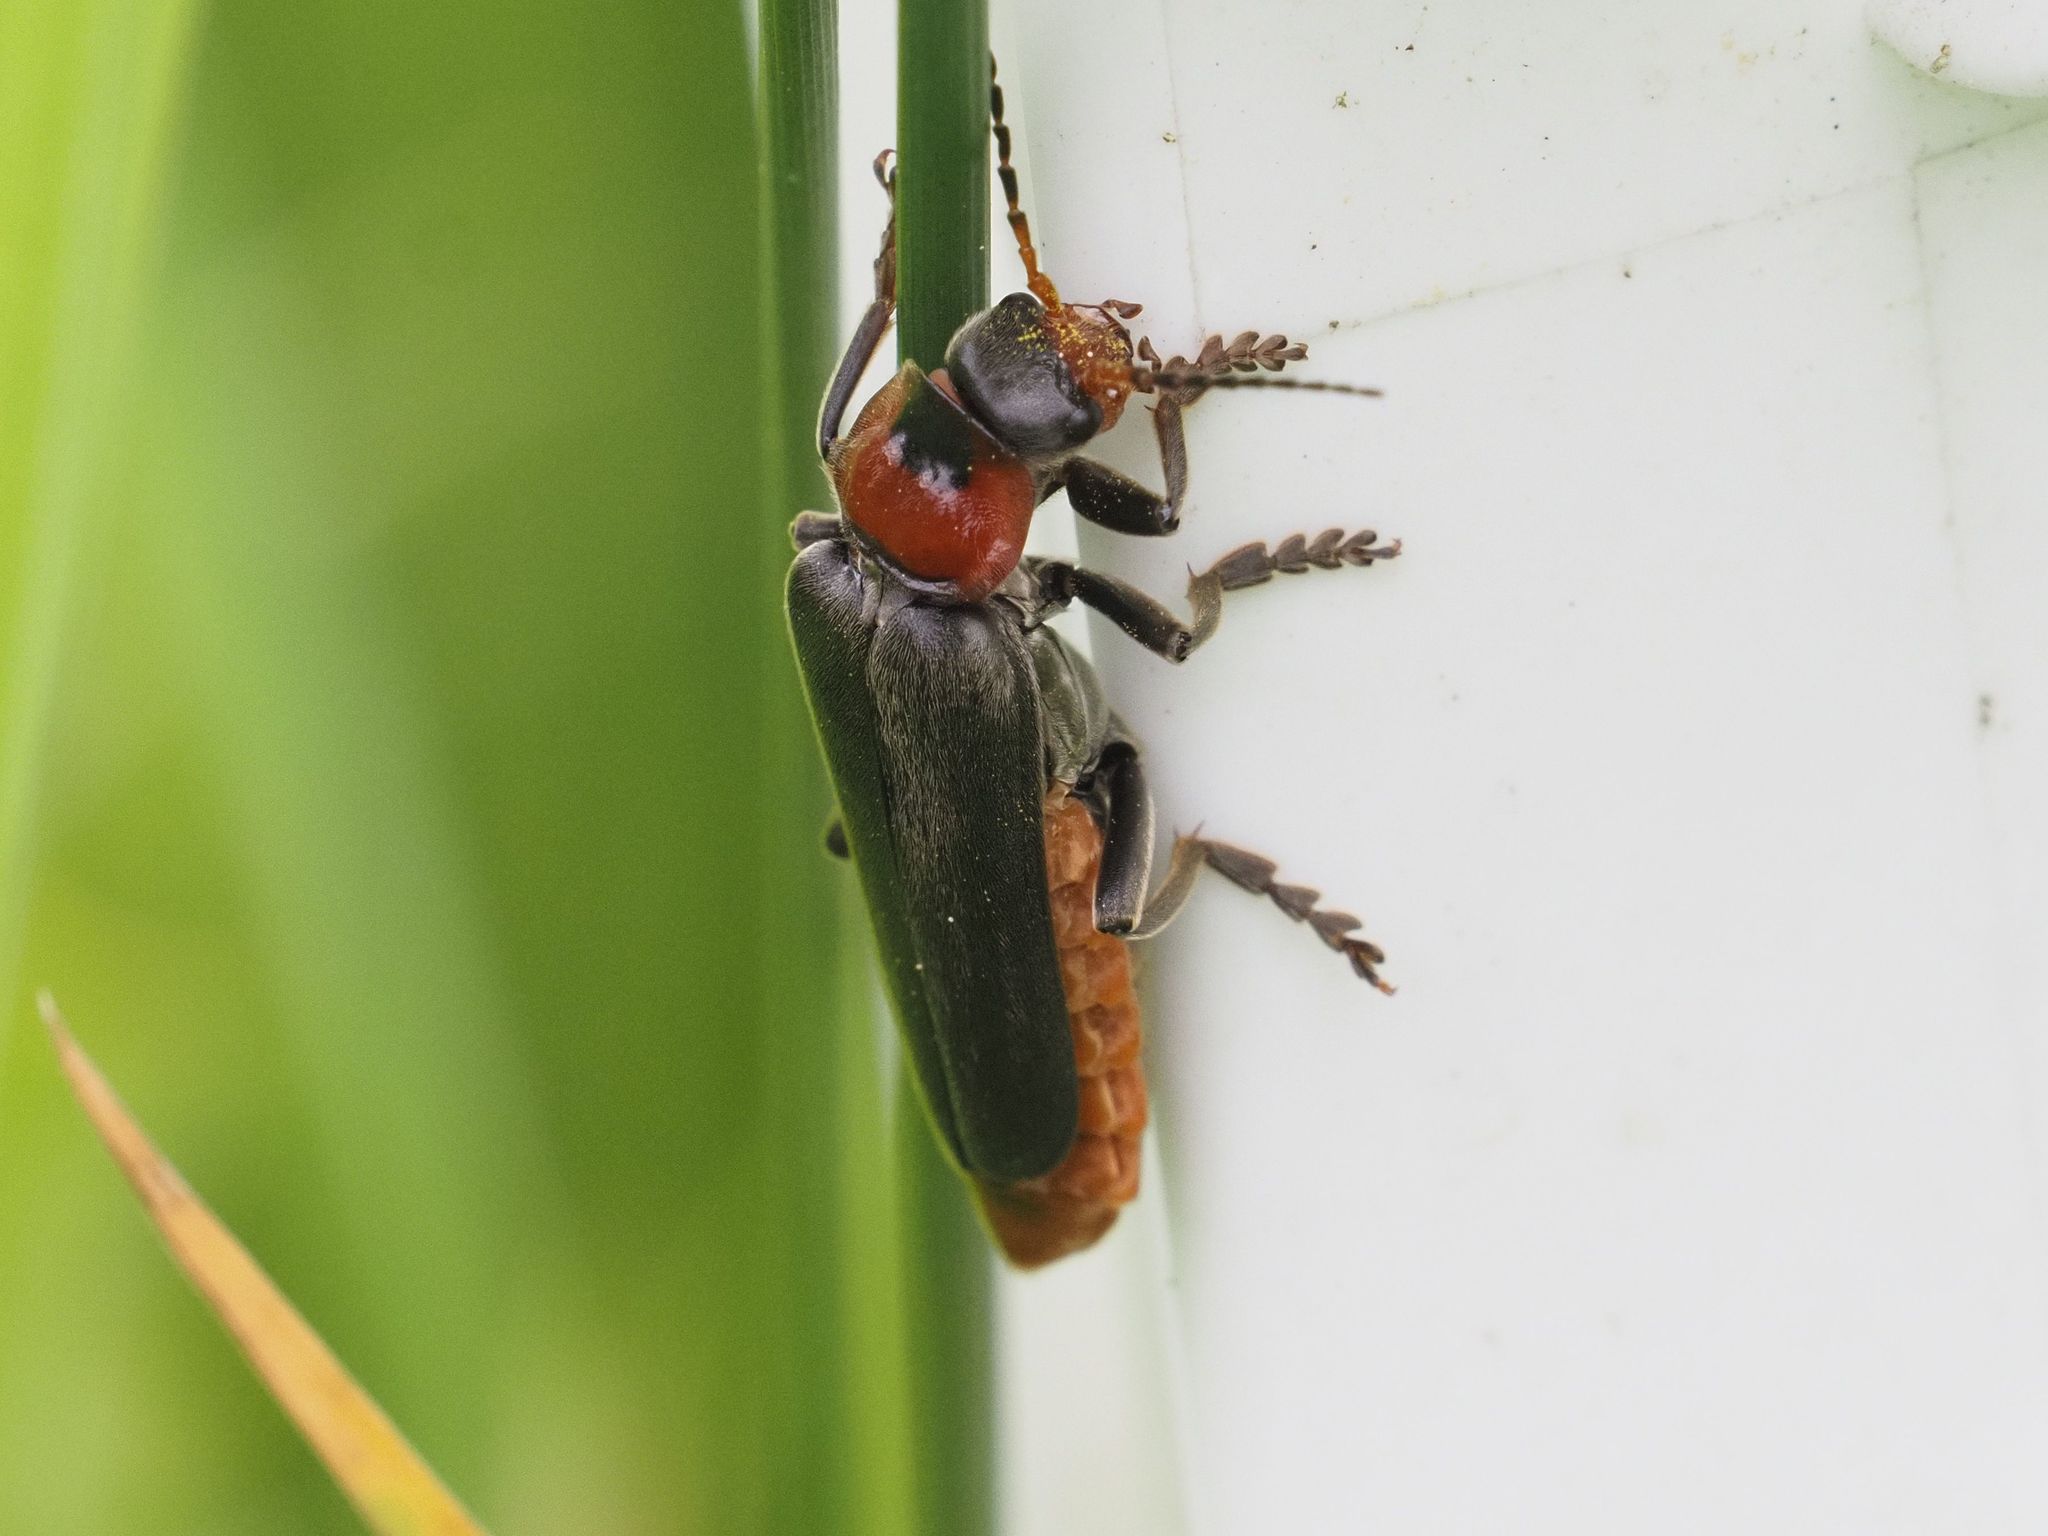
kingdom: Animalia
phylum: Arthropoda
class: Insecta
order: Coleoptera
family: Cantharidae
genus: Cantharis
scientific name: Cantharis fusca
